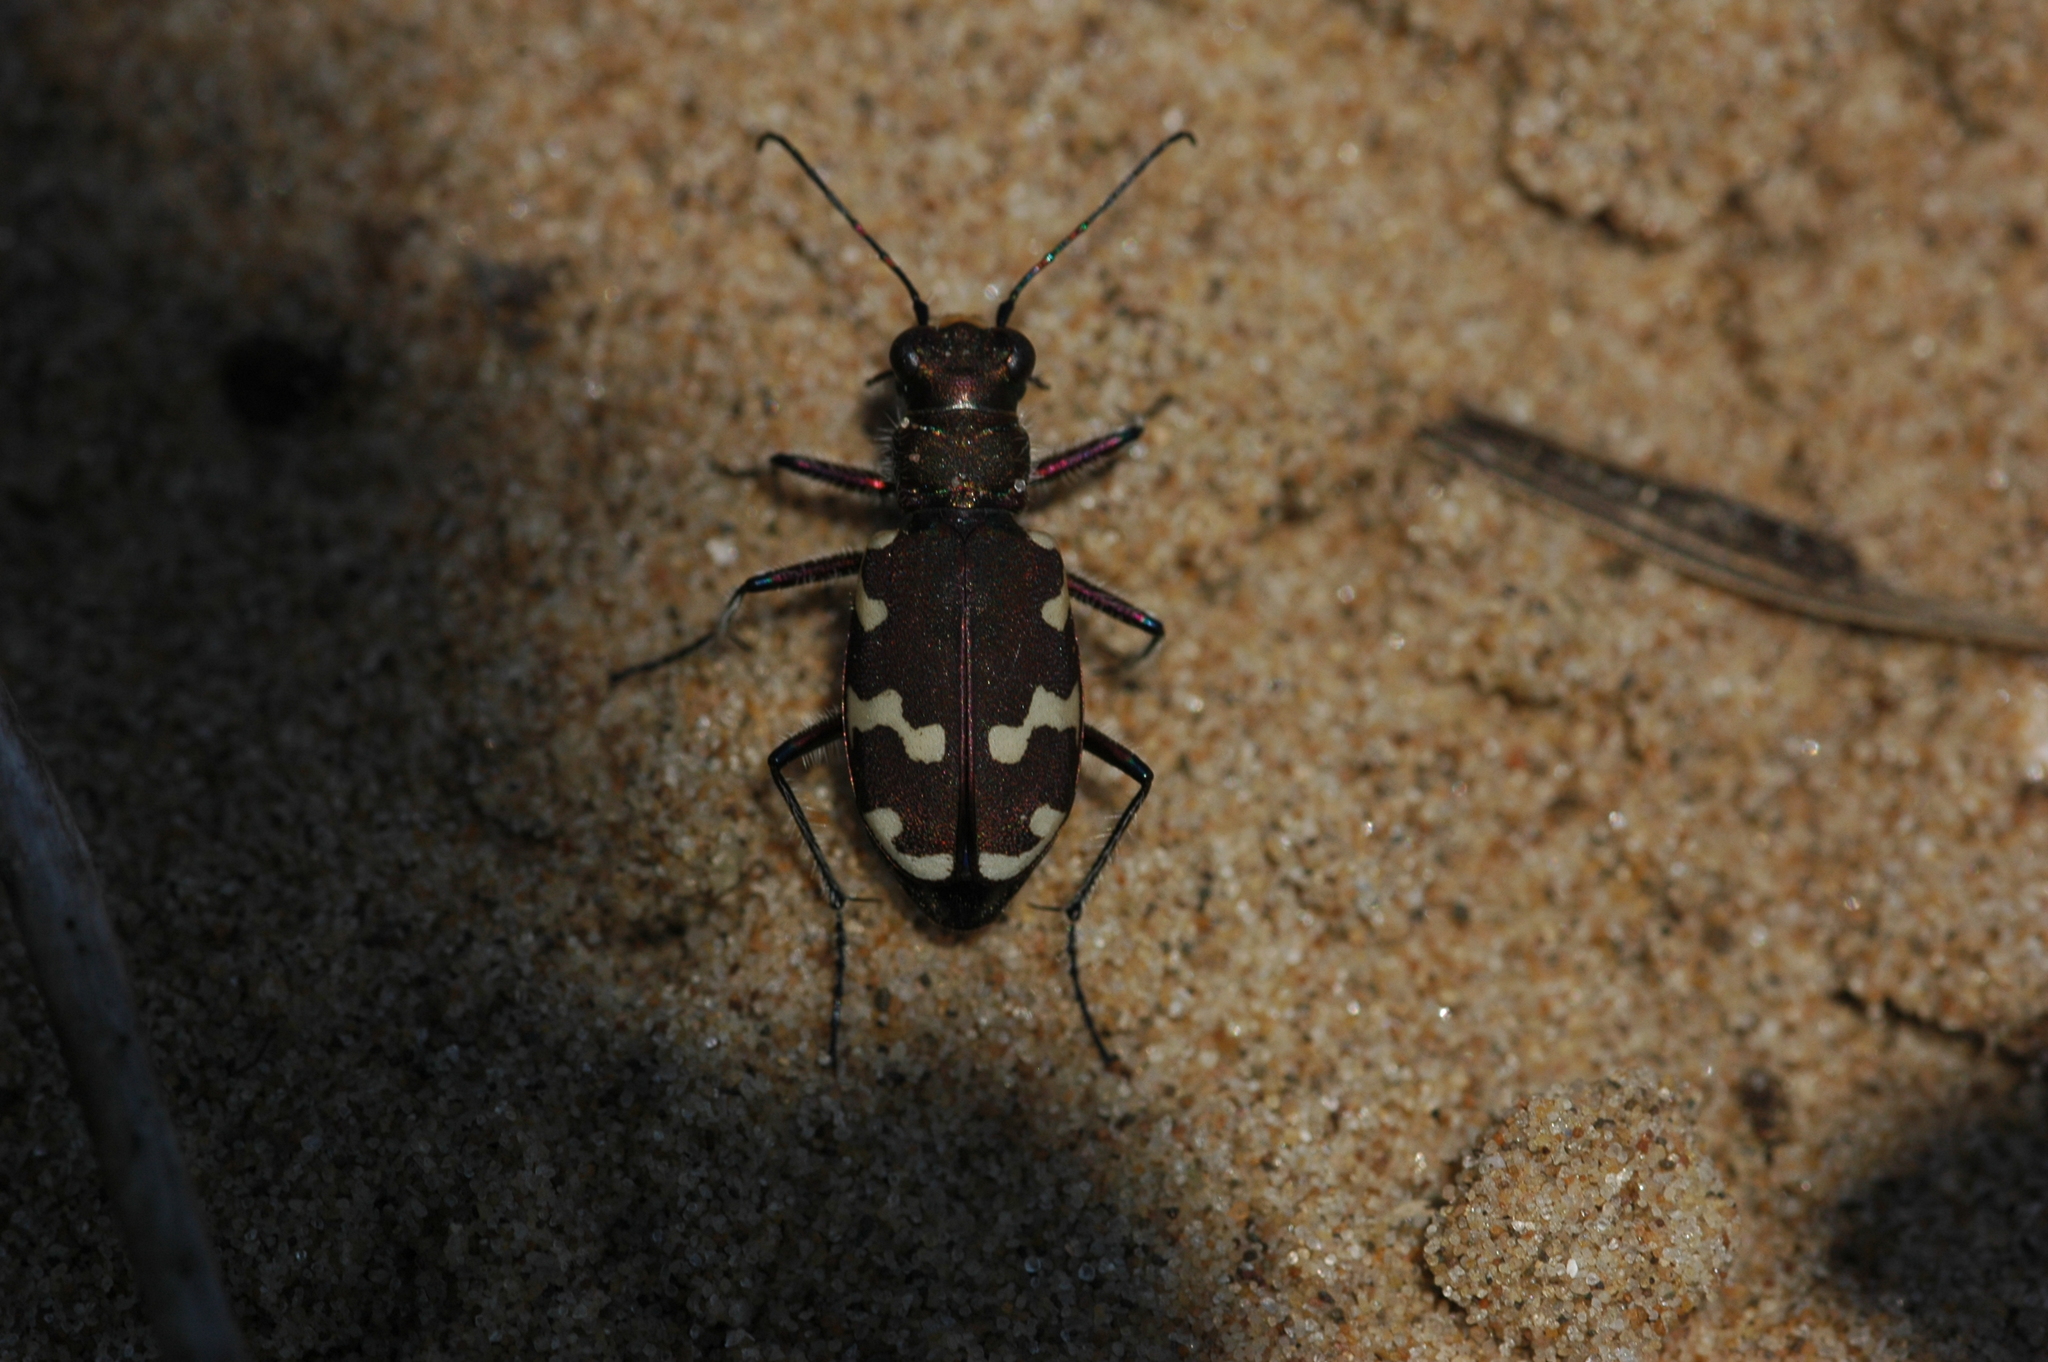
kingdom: Animalia
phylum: Arthropoda
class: Insecta
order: Coleoptera
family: Carabidae
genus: Cicindela
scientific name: Cicindela hybrida
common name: Northern dune tiger beetle
